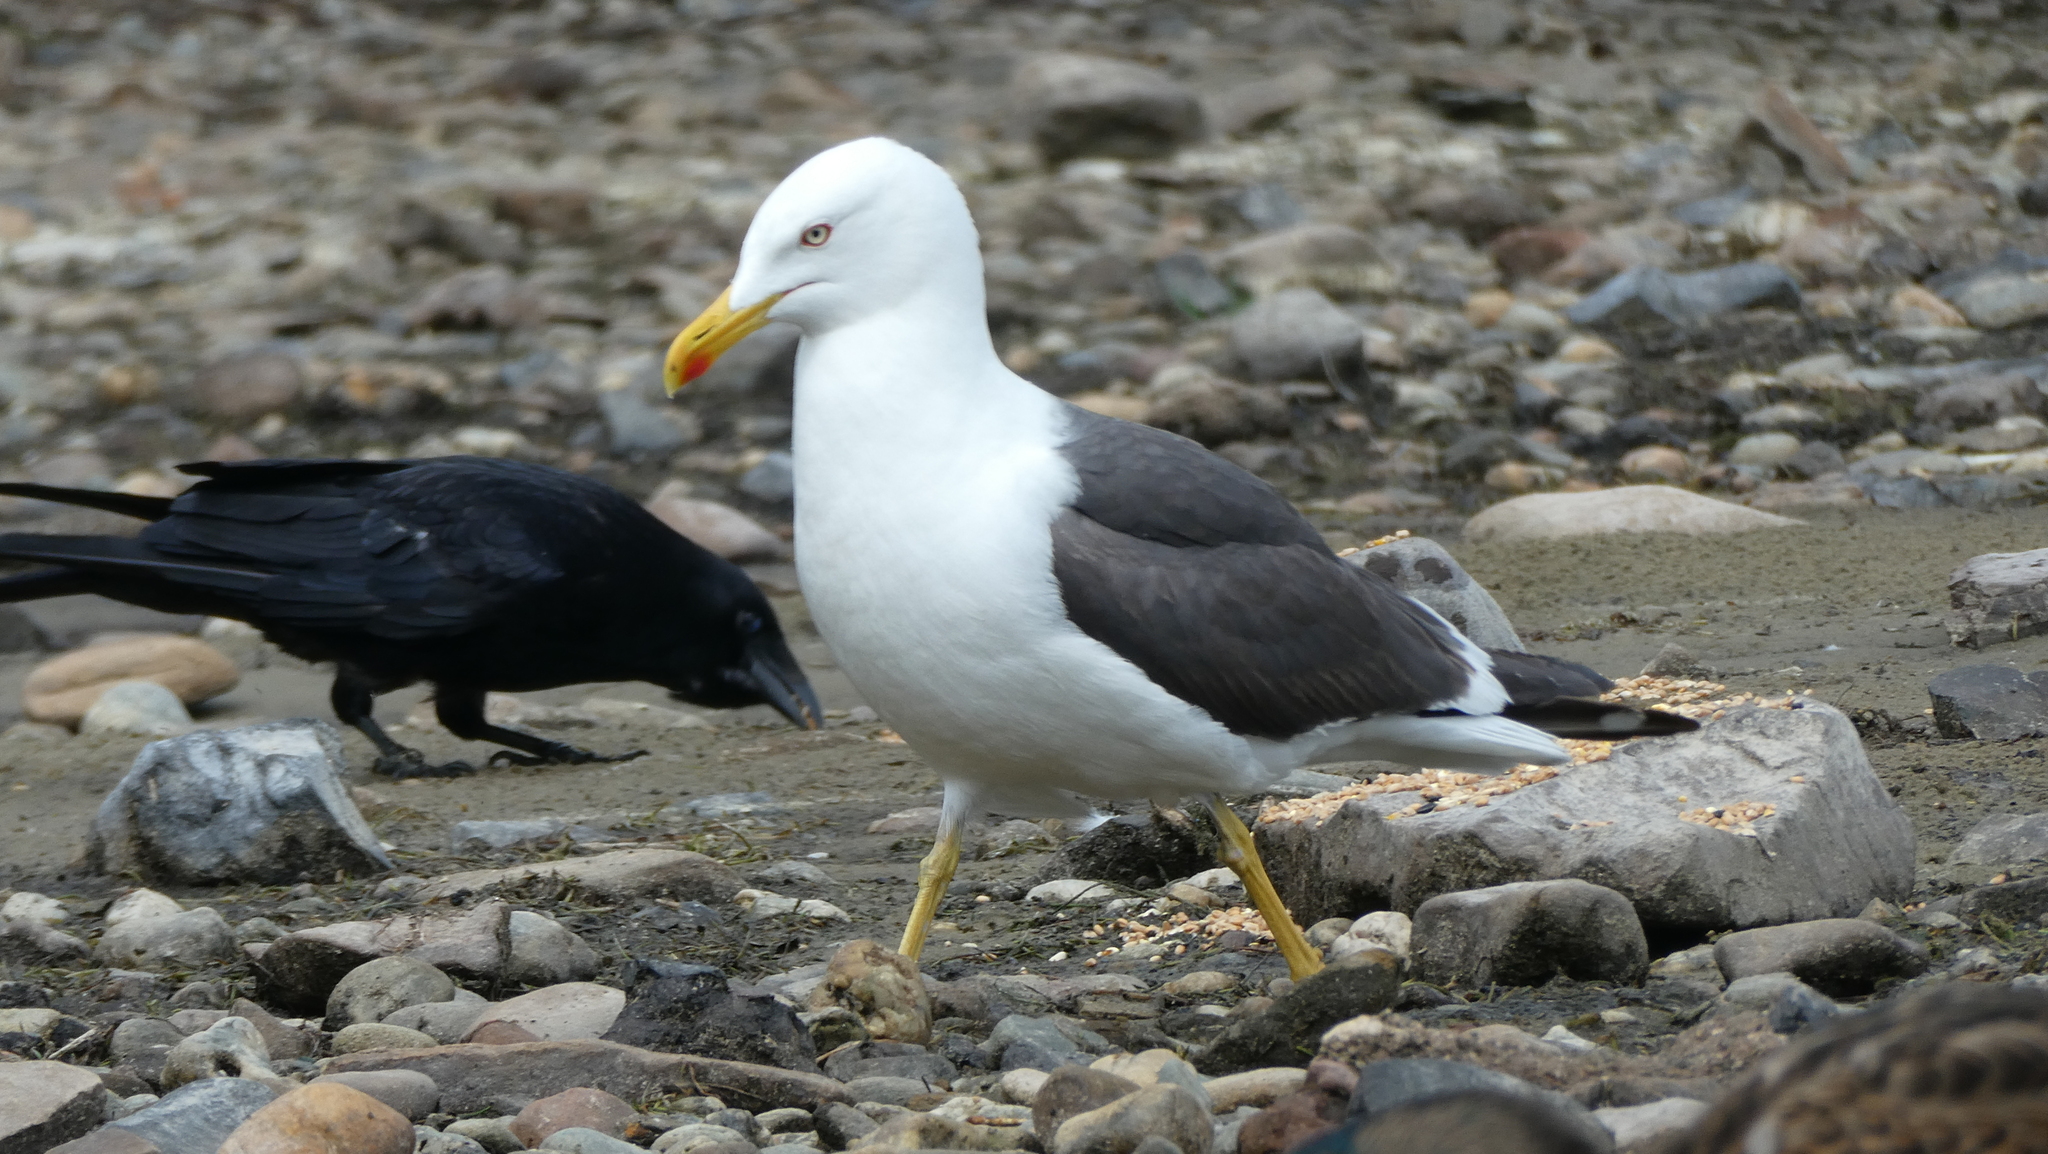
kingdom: Animalia
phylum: Chordata
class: Aves
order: Charadriiformes
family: Laridae
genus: Larus
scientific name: Larus fuscus
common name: Lesser black-backed gull
